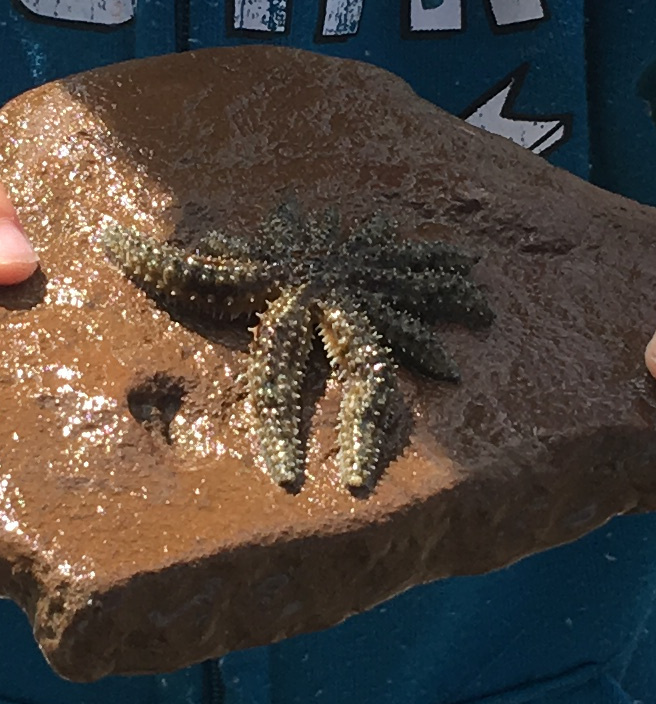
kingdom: Animalia
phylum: Echinodermata
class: Asteroidea
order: Forcipulatida
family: Asteriidae
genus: Coscinasterias
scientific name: Coscinasterias muricata
